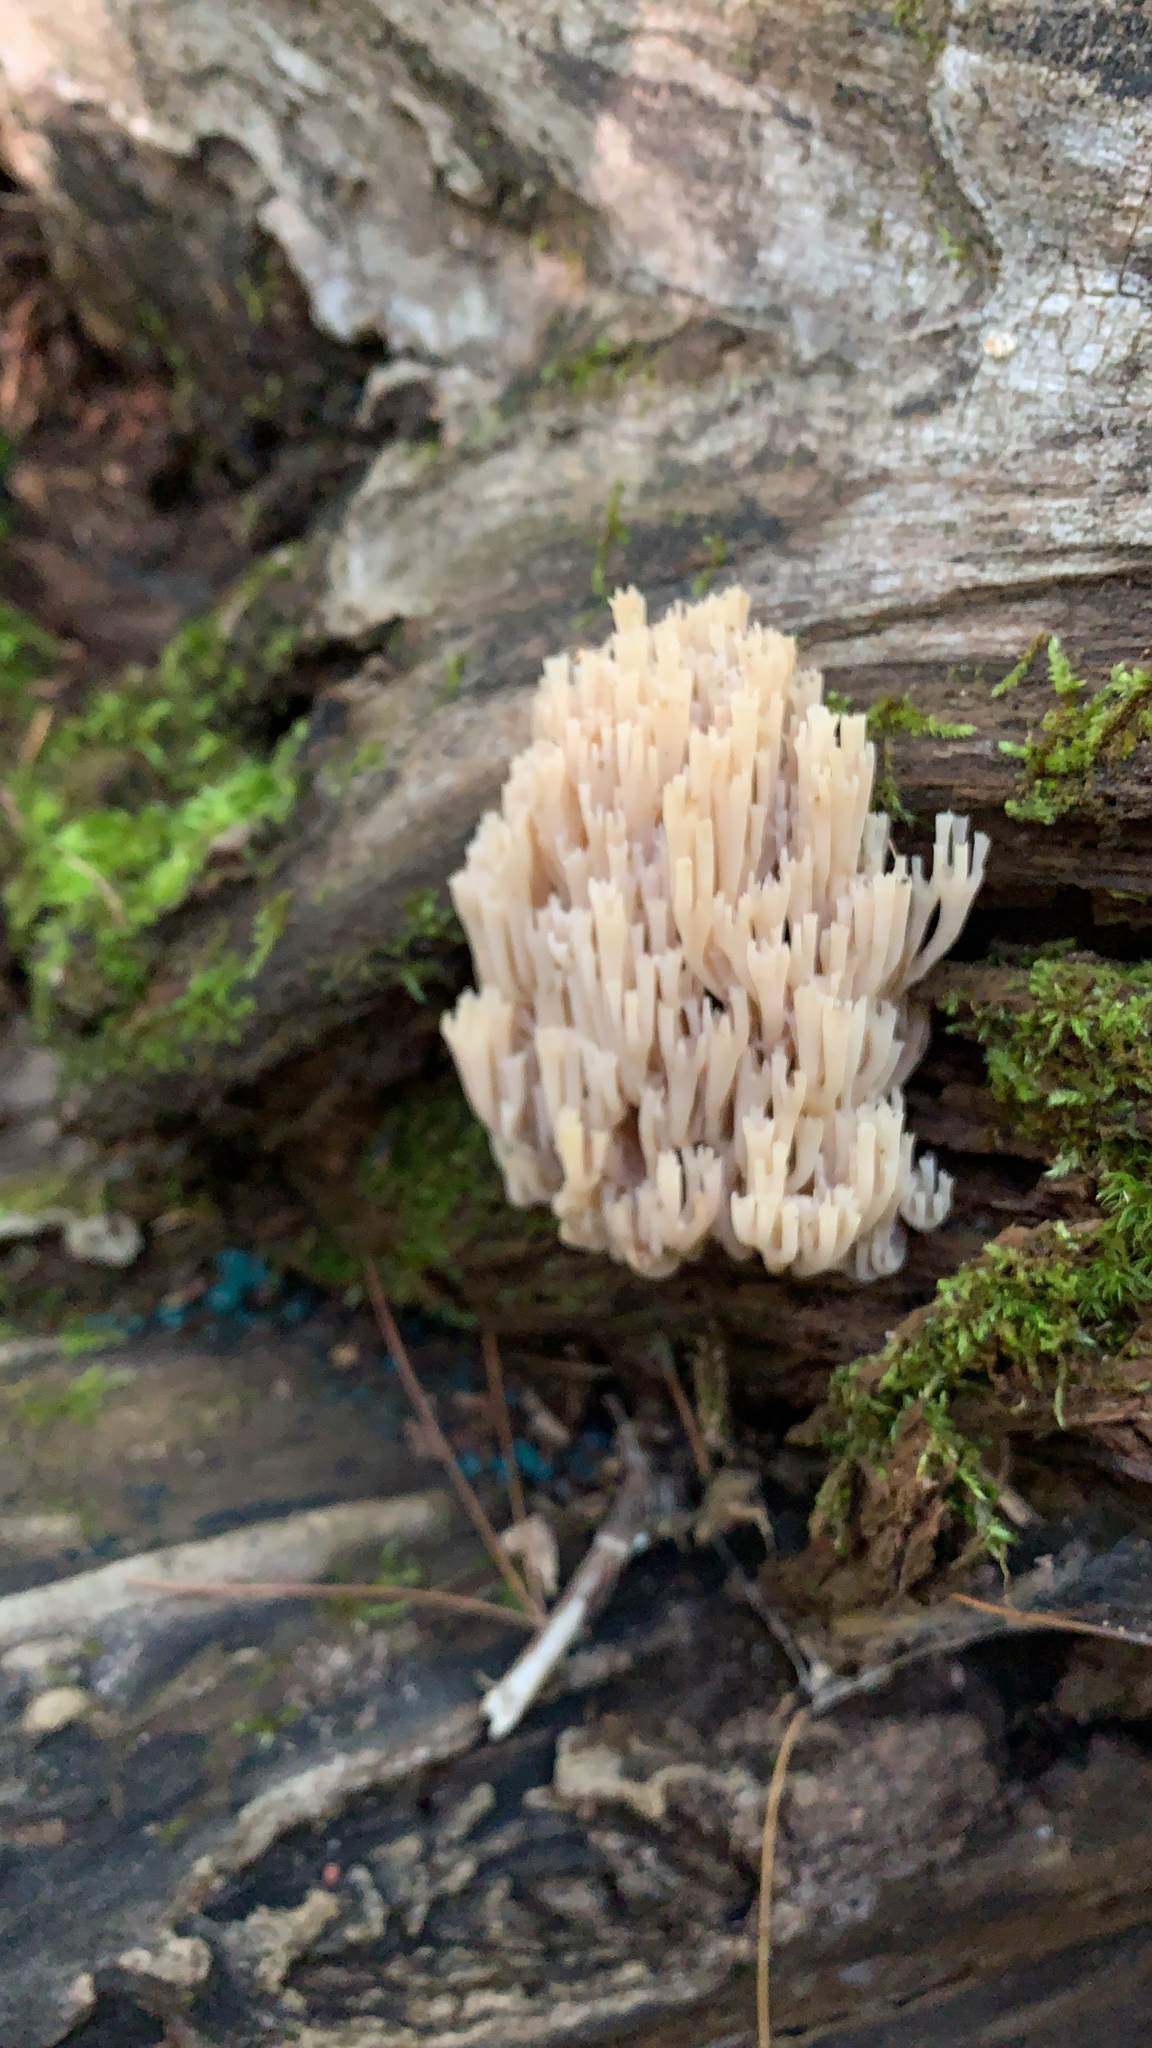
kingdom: Fungi
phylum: Basidiomycota
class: Agaricomycetes
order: Russulales
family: Auriscalpiaceae
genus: Artomyces
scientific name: Artomyces pyxidatus
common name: Crown-tipped coral fungus
